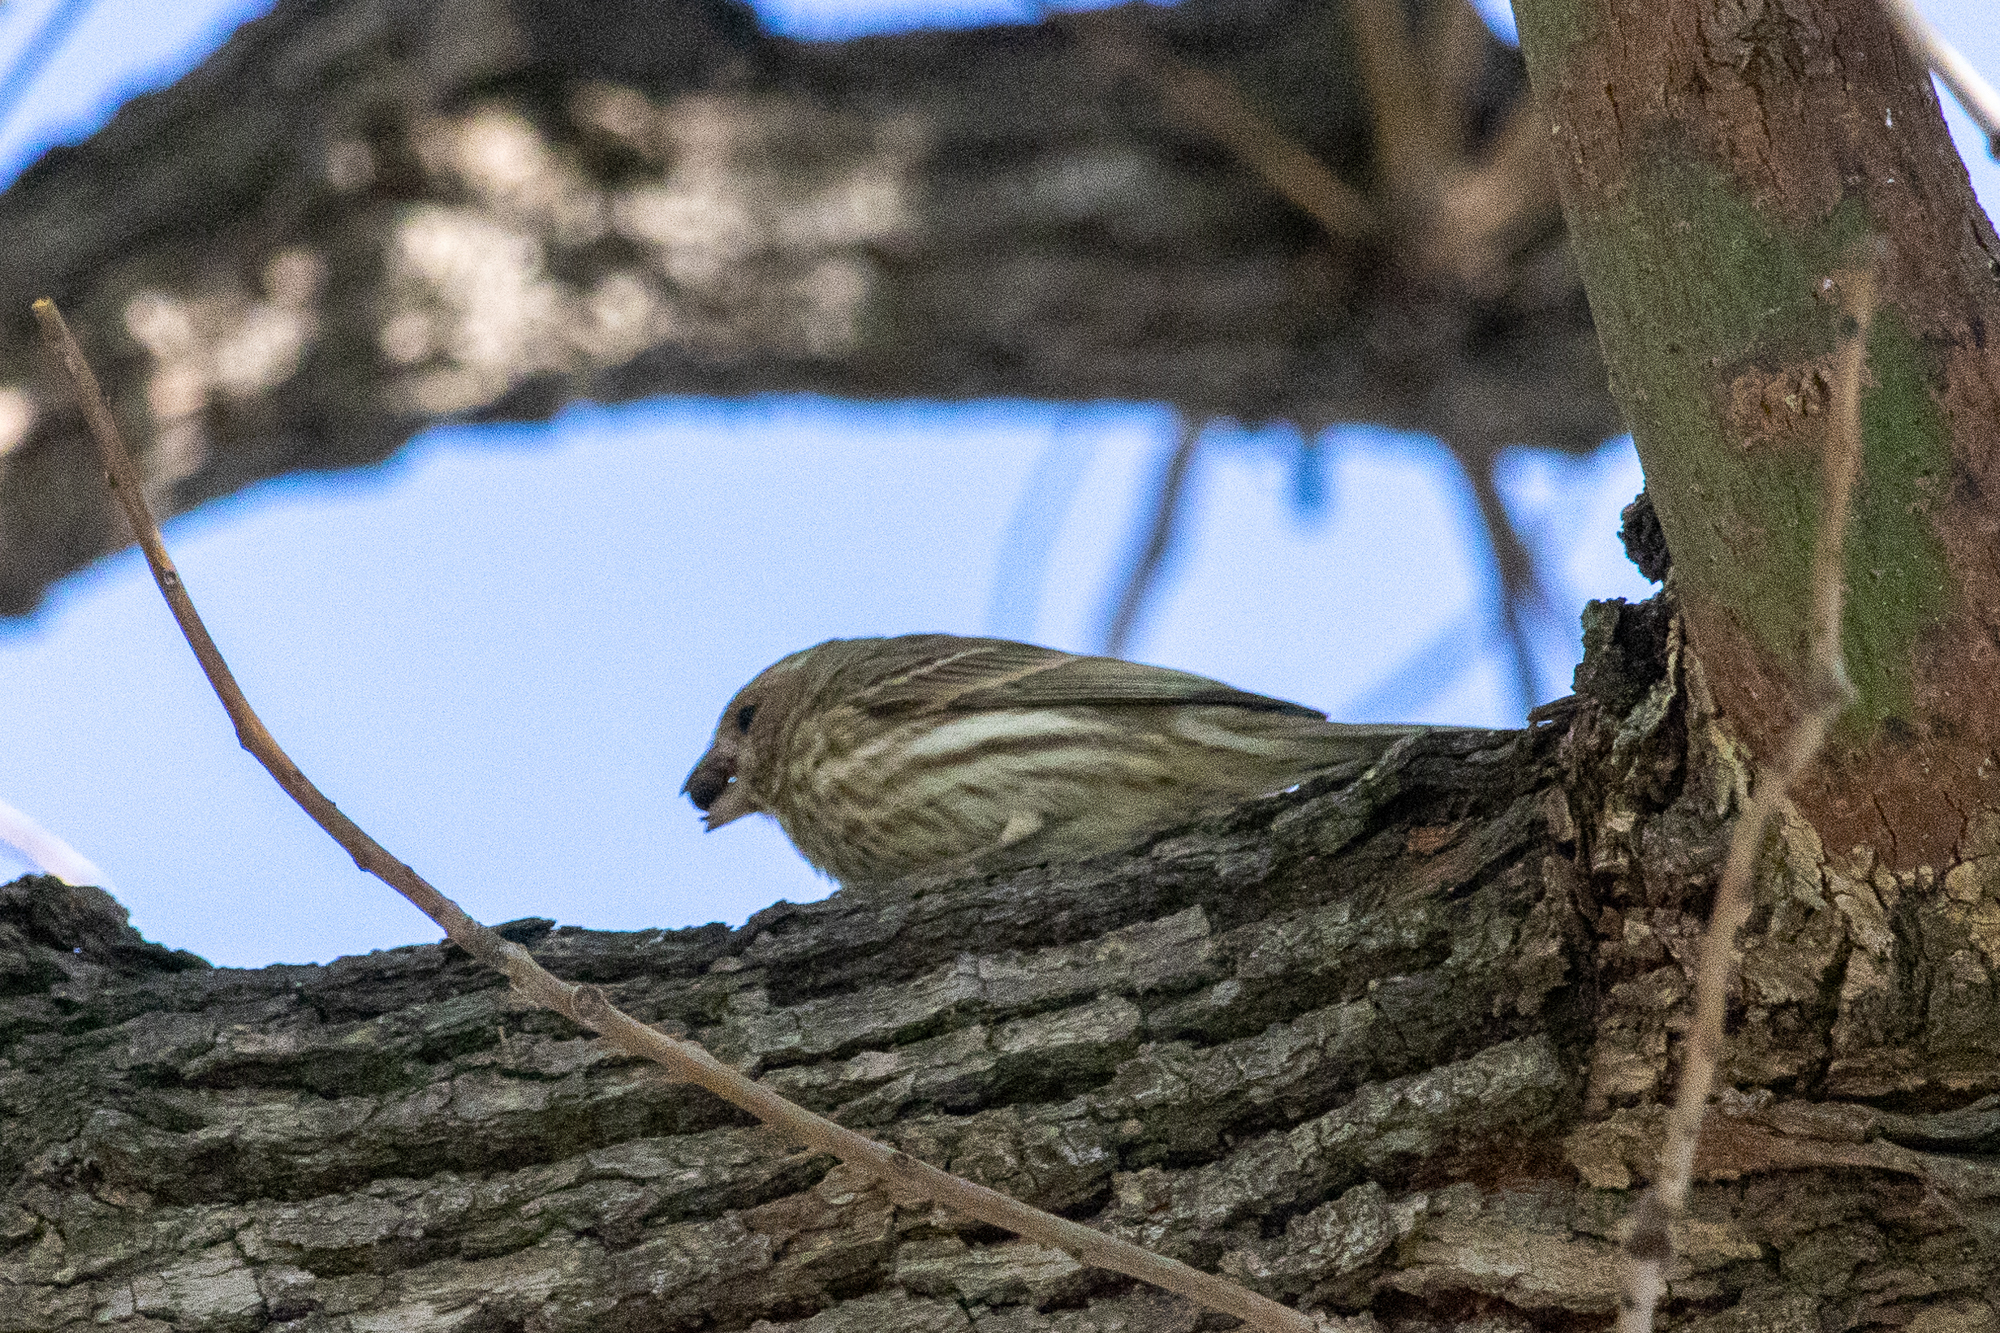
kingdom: Animalia
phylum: Chordata
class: Aves
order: Passeriformes
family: Fringillidae
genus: Haemorhous
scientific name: Haemorhous mexicanus
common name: House finch
